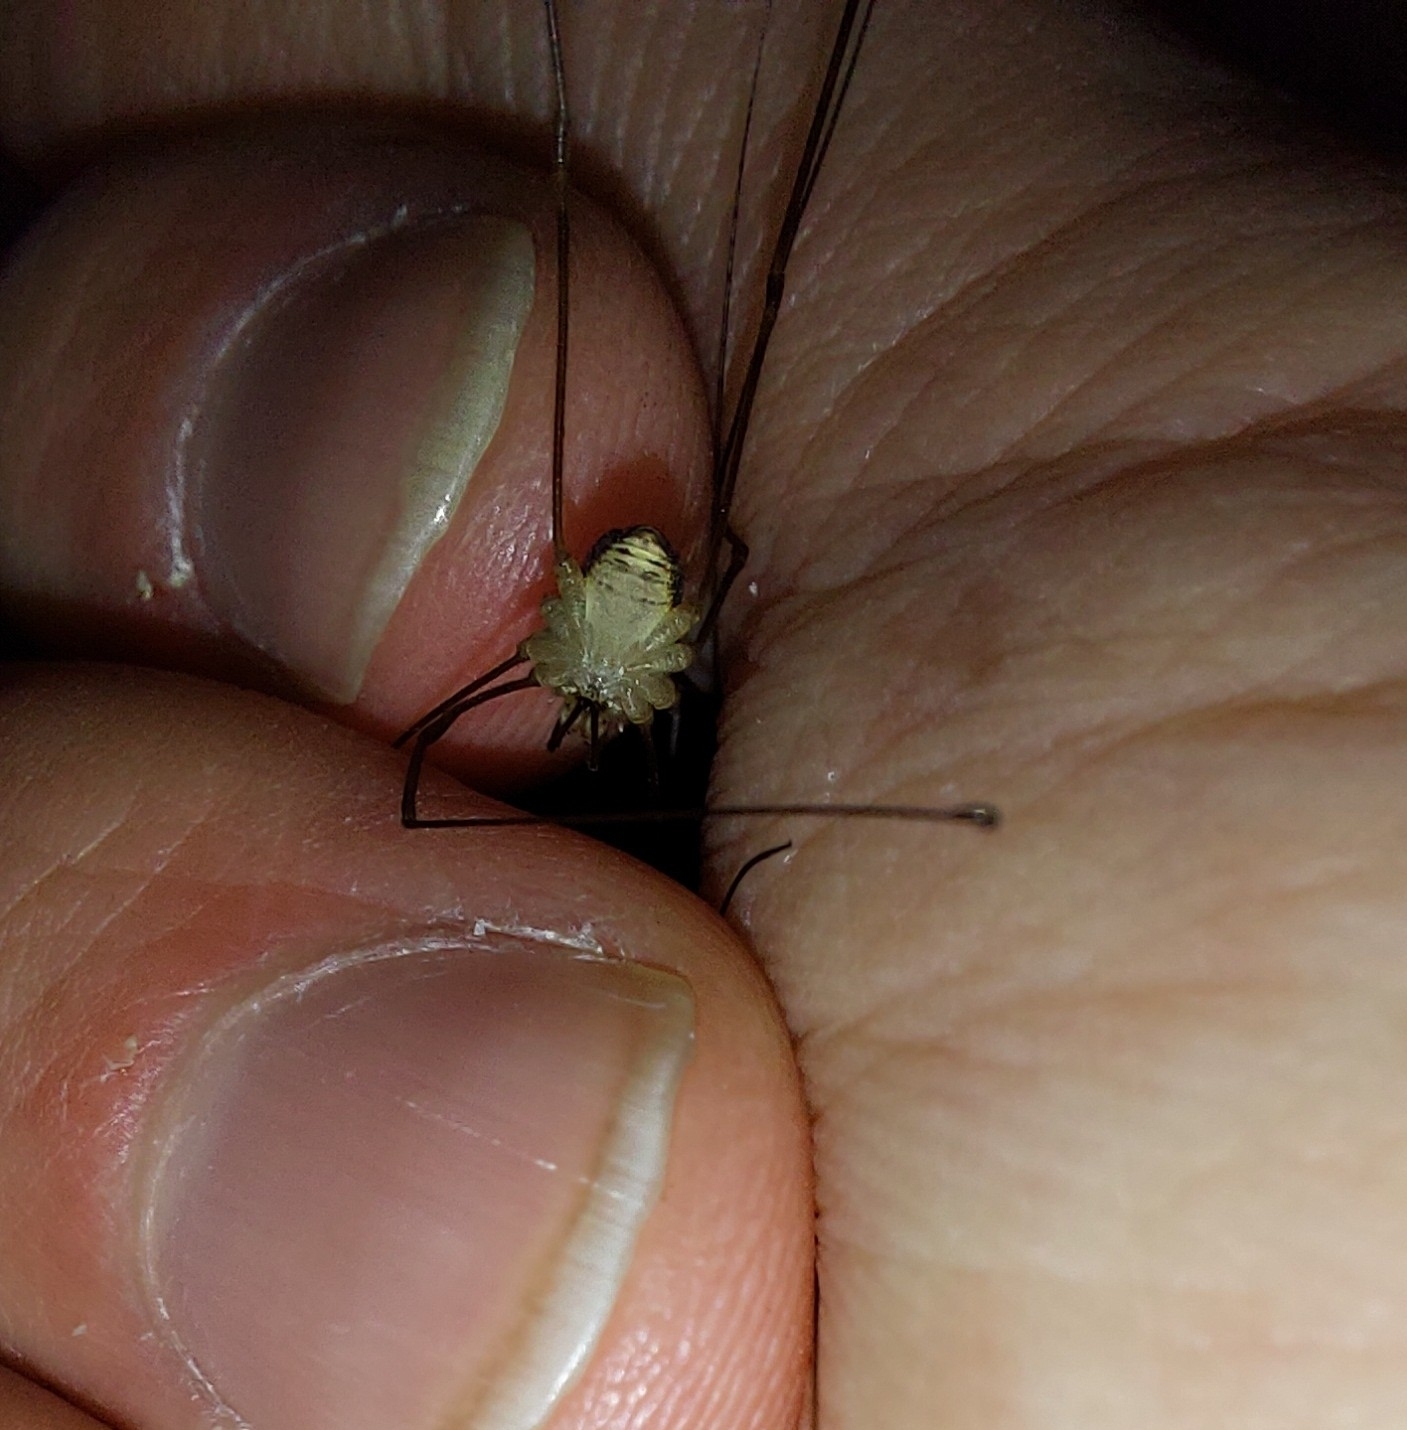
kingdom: Animalia
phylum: Arthropoda
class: Arachnida
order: Opiliones
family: Phalangiidae
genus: Dicranopalpus
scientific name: Dicranopalpus ramosus
